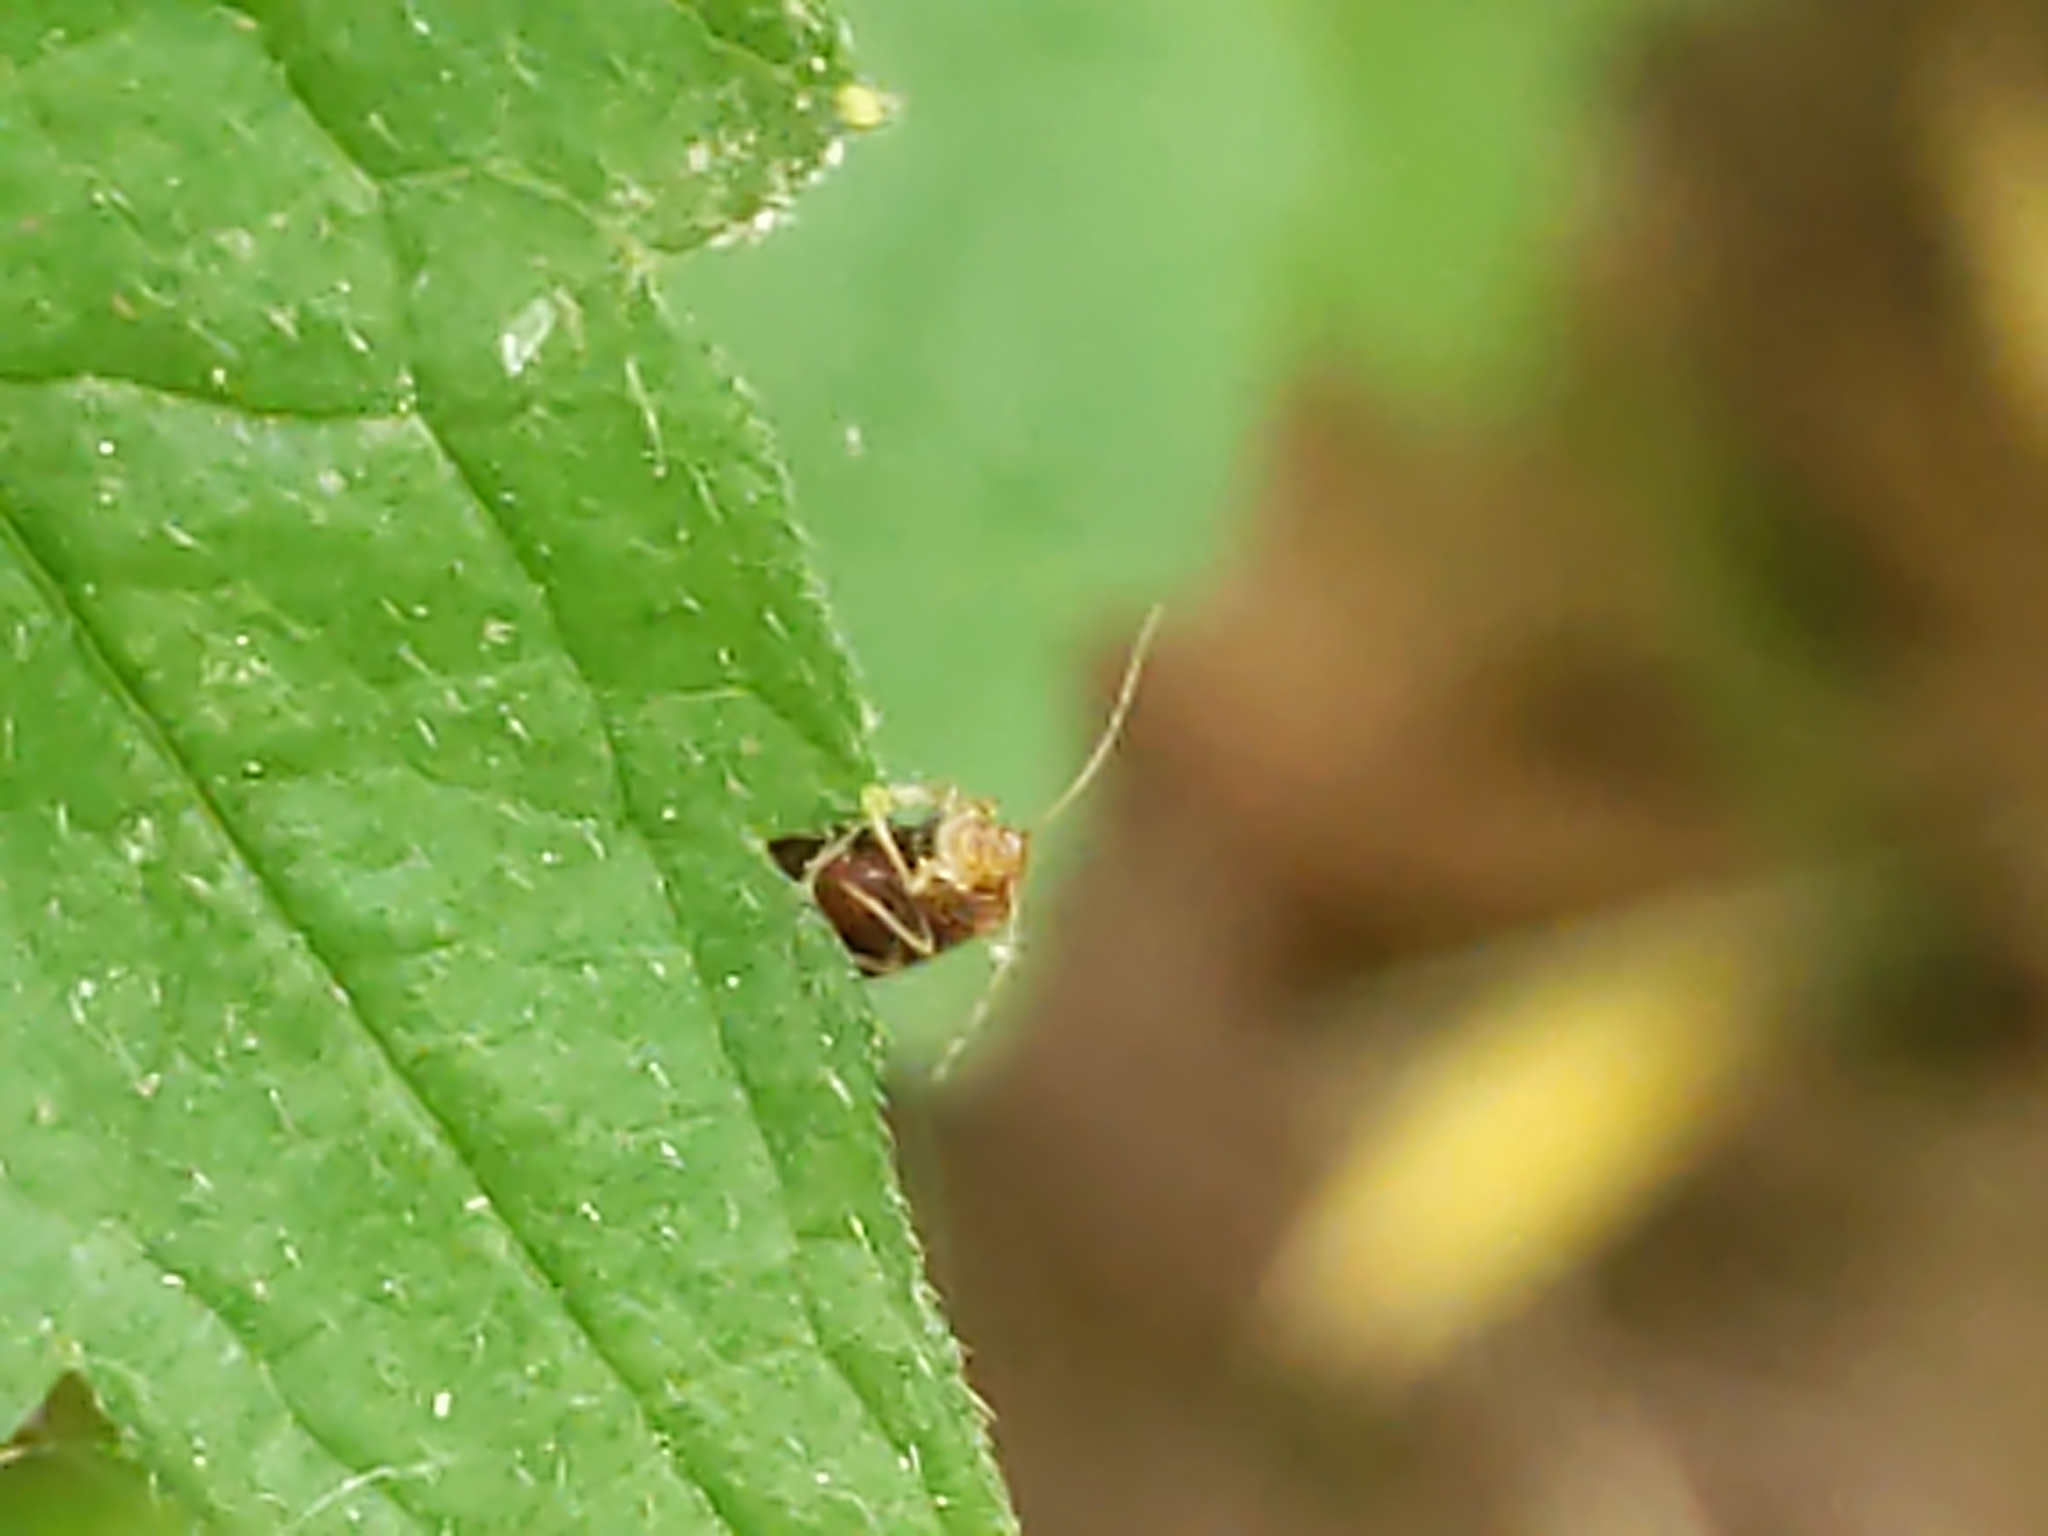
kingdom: Animalia
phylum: Arthropoda
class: Insecta
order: Psocodea
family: Amphipsocidae
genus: Polypsocus
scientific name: Polypsocus corruptus
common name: Corrupt barklouse
